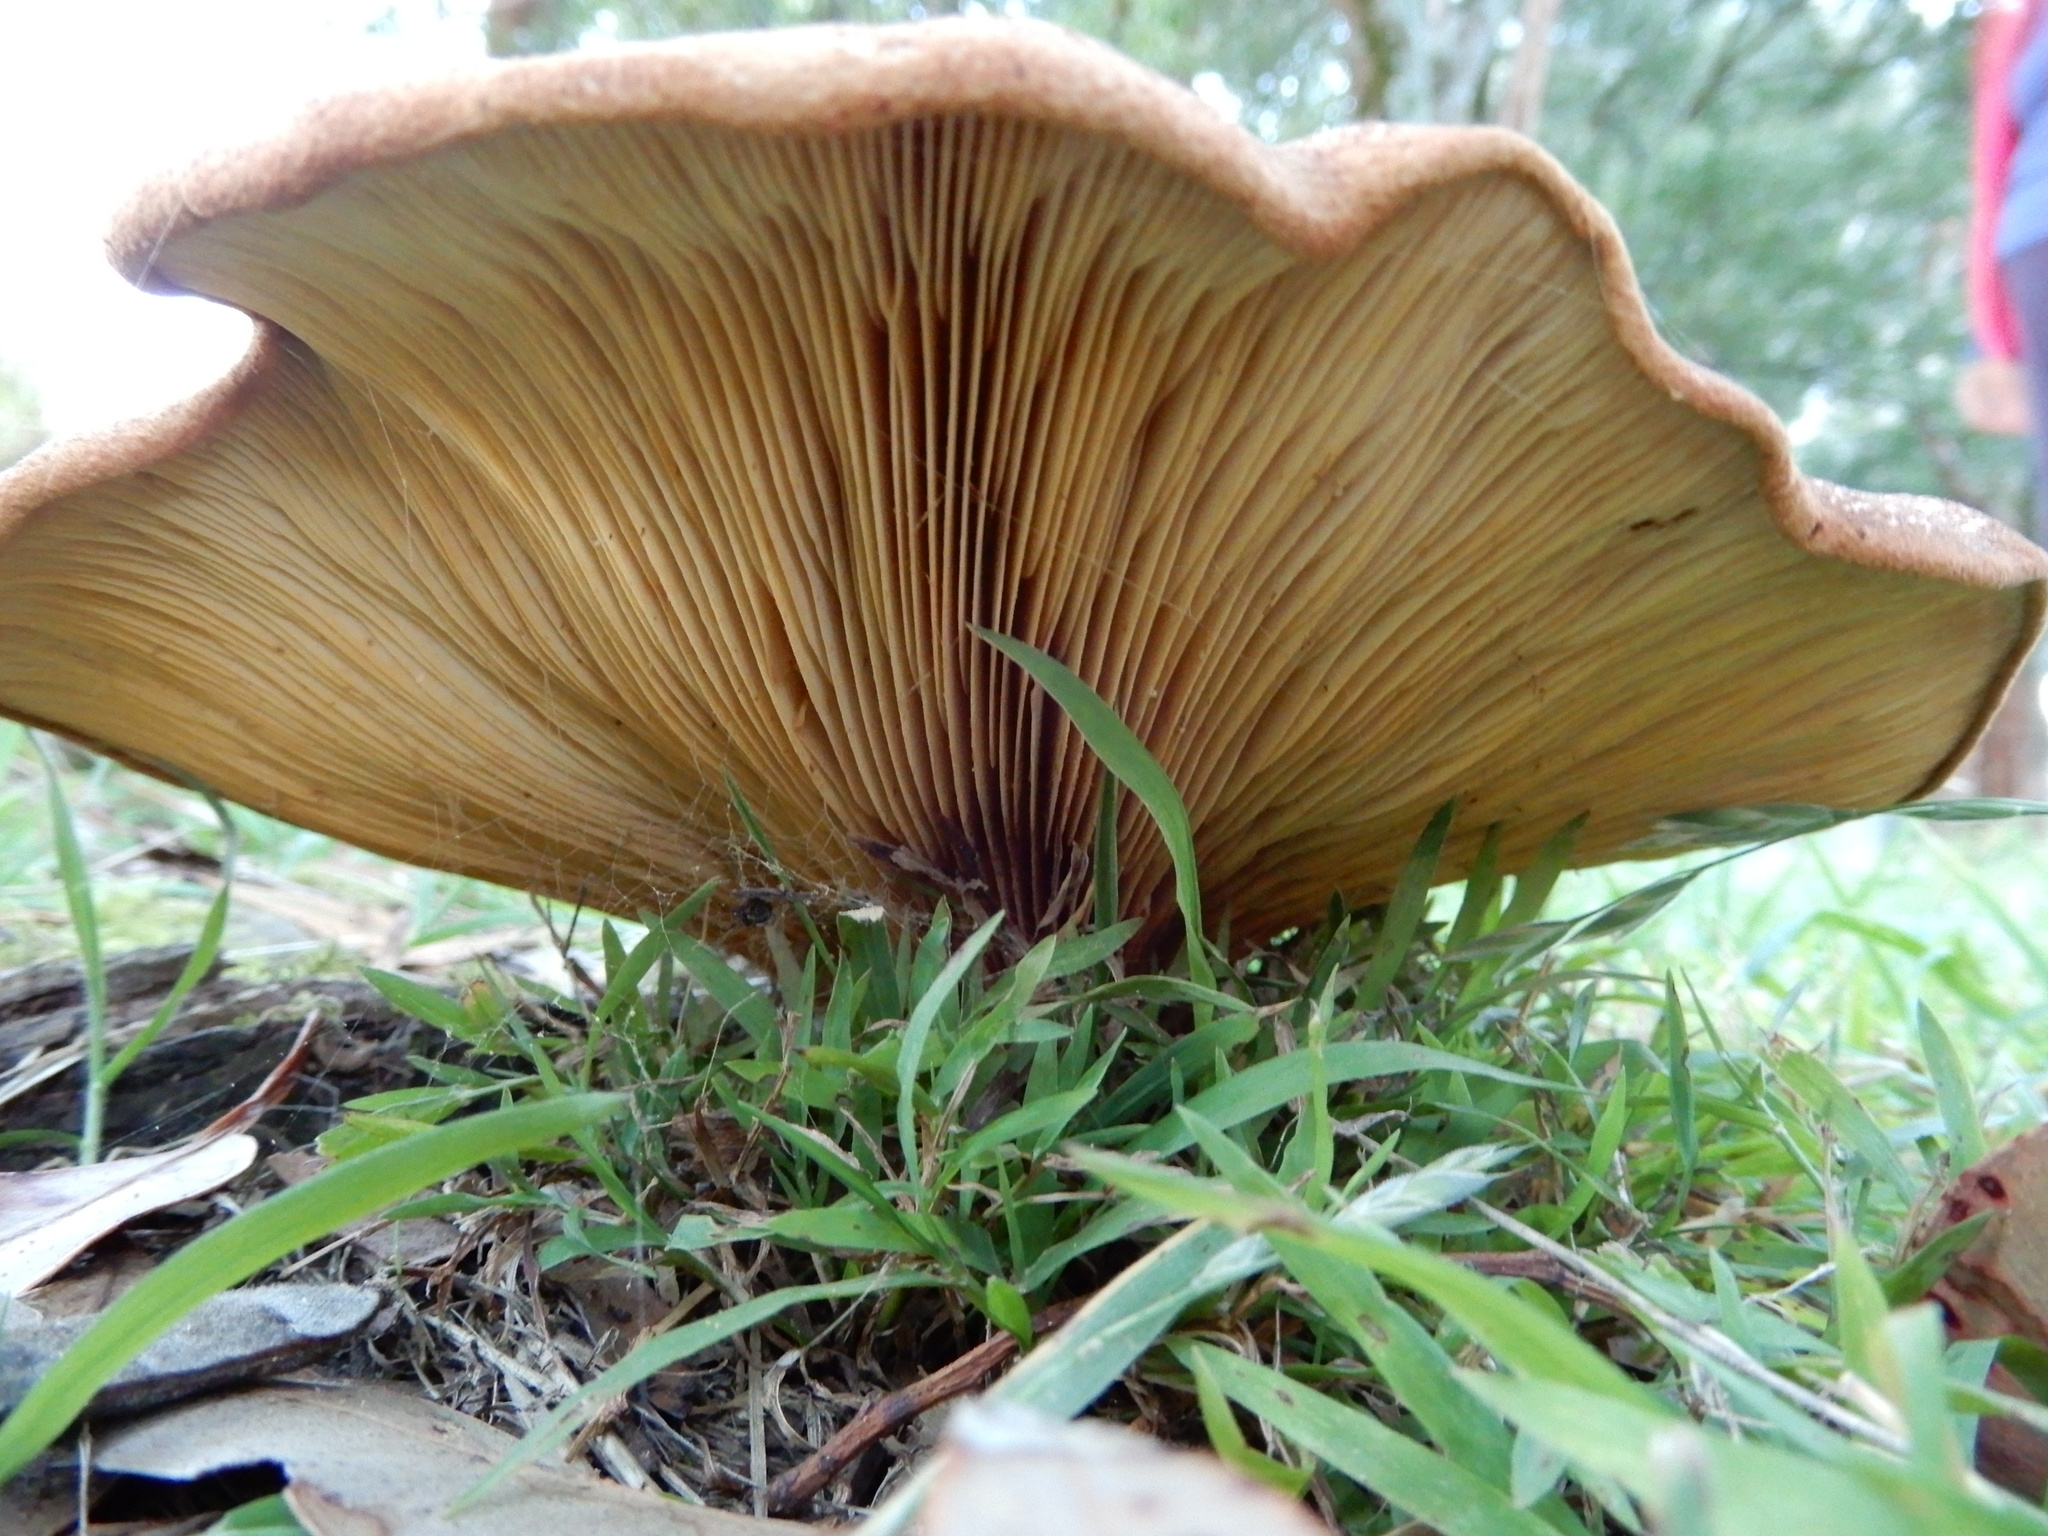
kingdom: Fungi
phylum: Basidiomycota
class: Agaricomycetes
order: Boletales
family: Tapinellaceae
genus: Tapinella
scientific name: Tapinella atrotomentosa
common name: Velvet rollrim
